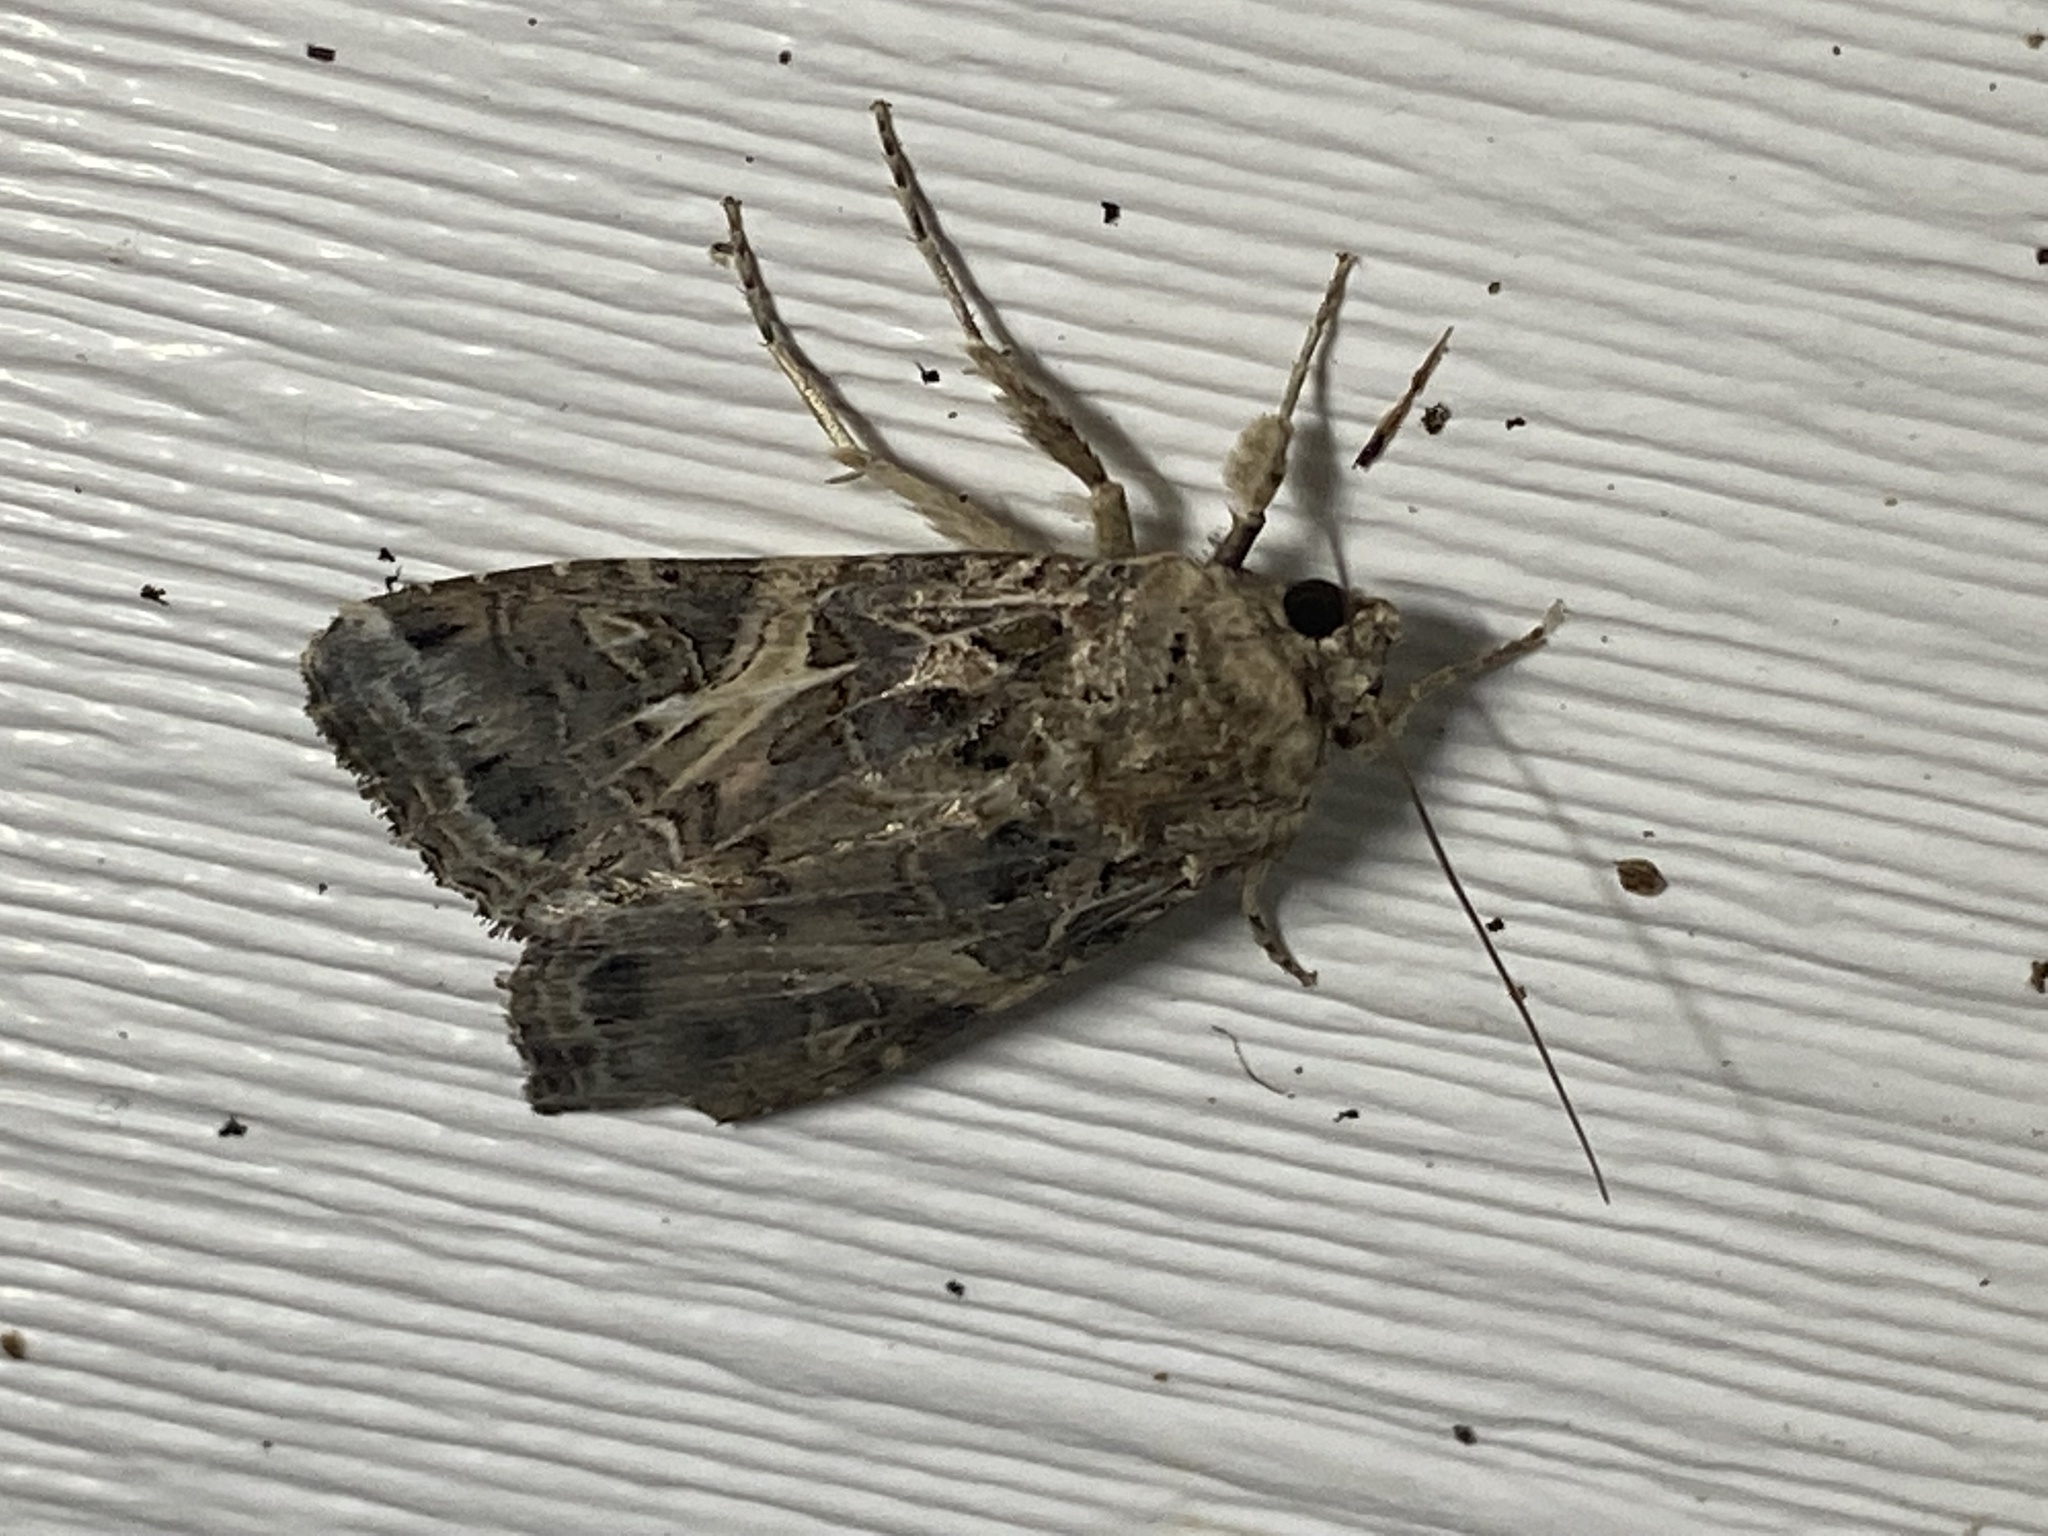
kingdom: Animalia
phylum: Arthropoda
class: Insecta
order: Lepidoptera
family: Noctuidae
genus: Spodoptera
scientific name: Spodoptera ornithogalli
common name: Yellow-striped armyworm
